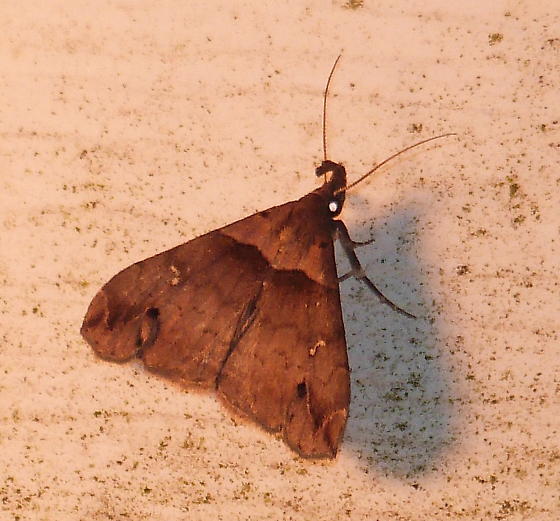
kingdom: Animalia
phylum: Arthropoda
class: Insecta
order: Lepidoptera
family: Erebidae
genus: Lascoria
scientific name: Lascoria ambigualis
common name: Ambiguous moth
